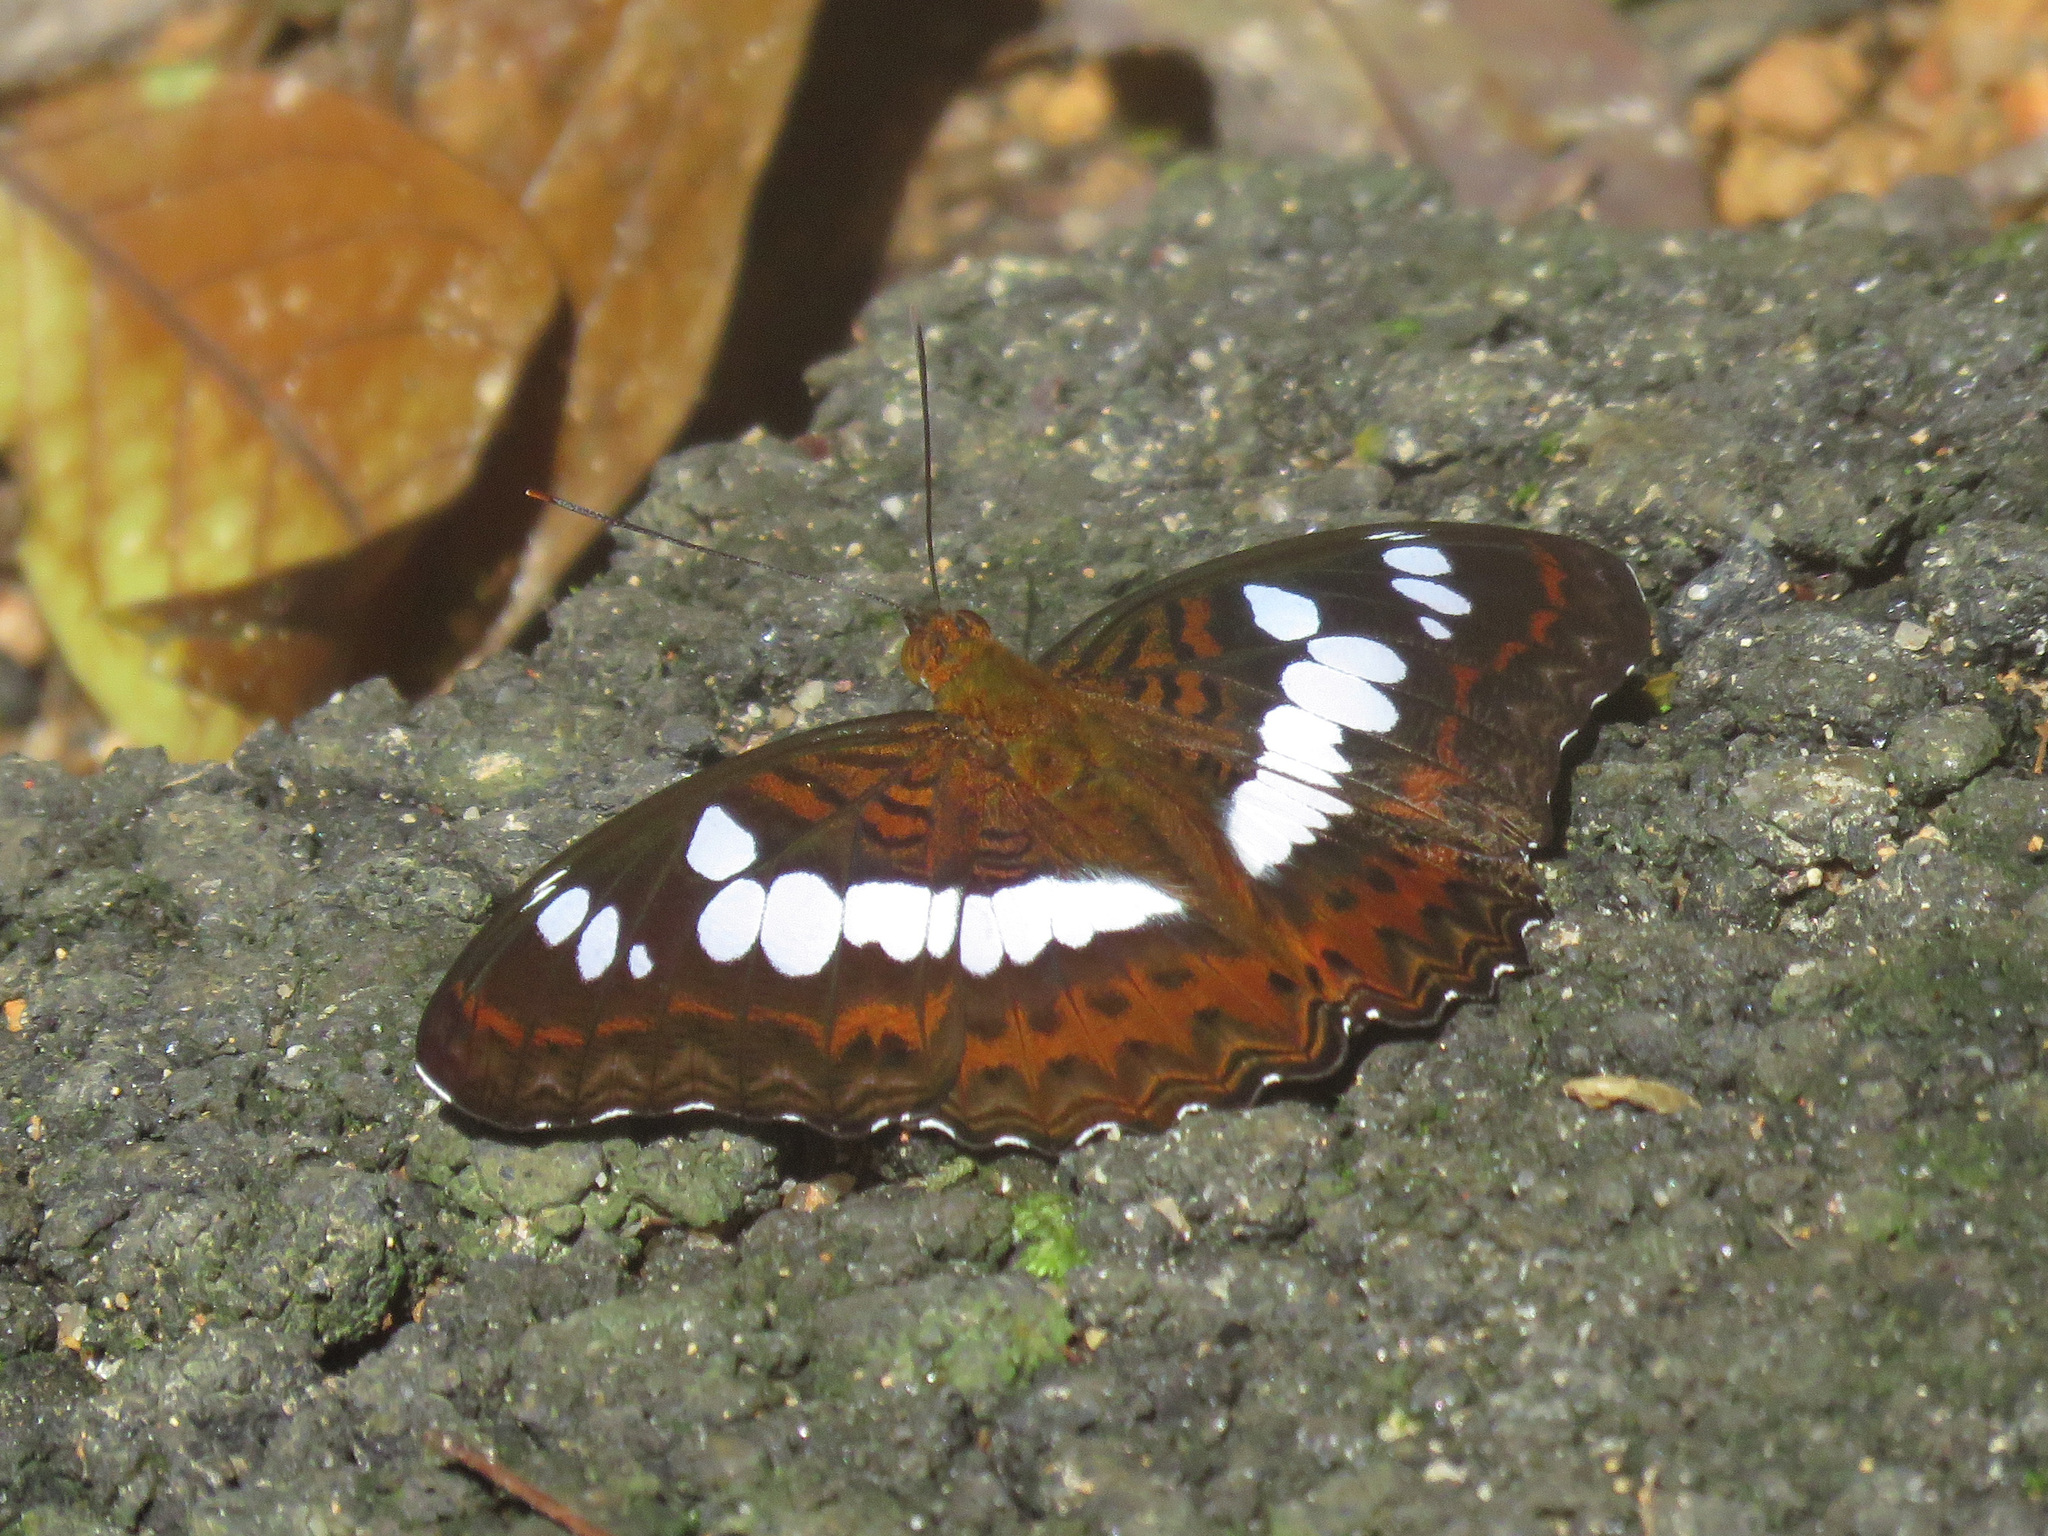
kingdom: Animalia
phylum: Arthropoda
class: Insecta
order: Lepidoptera
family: Nymphalidae
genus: Limenitis
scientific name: Limenitis Moduza procris
